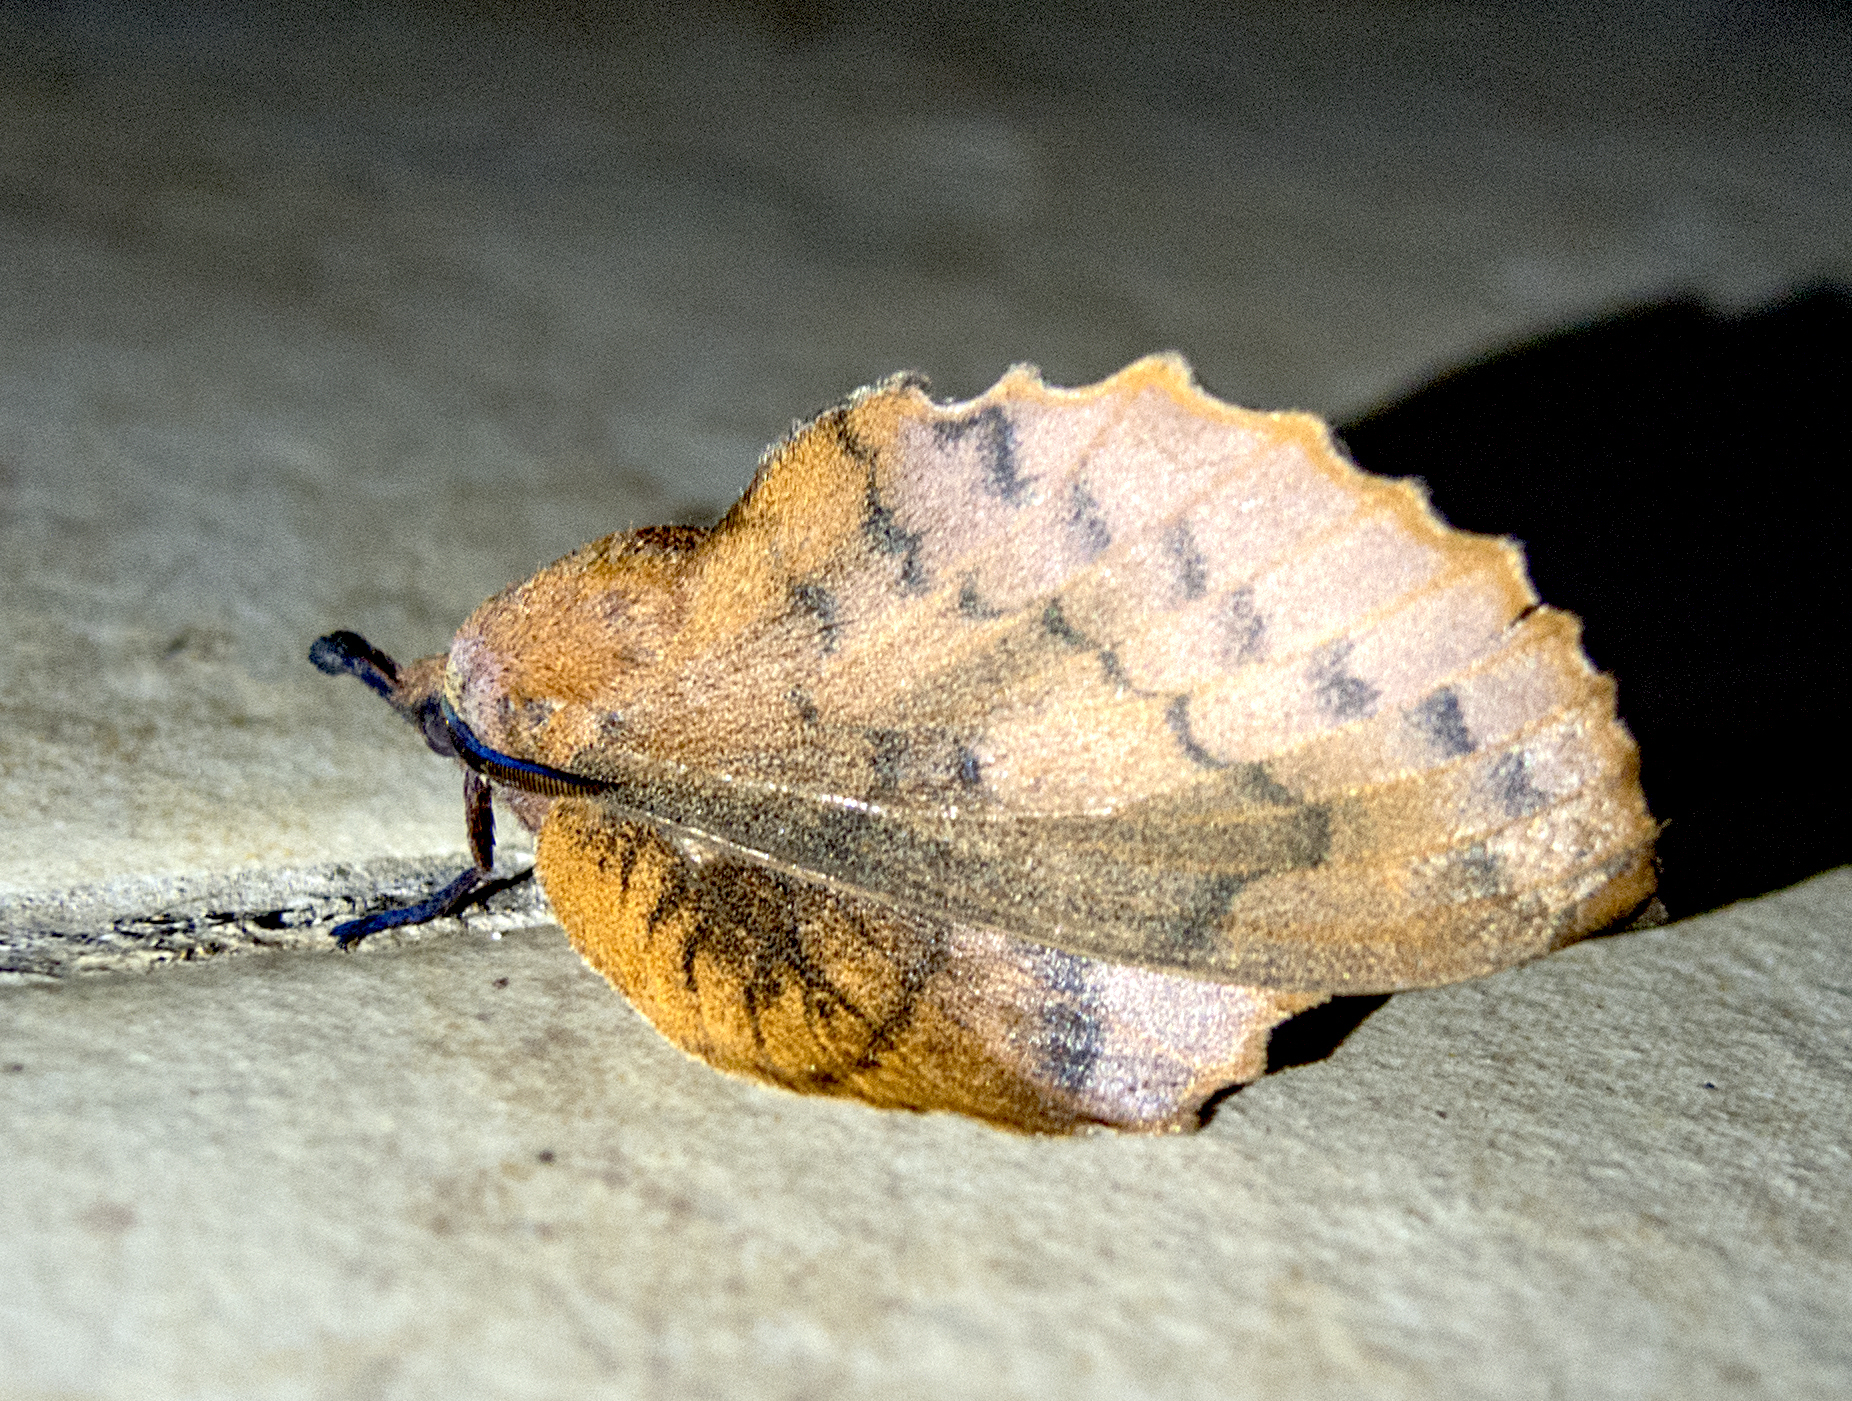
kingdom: Animalia
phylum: Arthropoda
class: Insecta
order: Lepidoptera
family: Lasiocampidae
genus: Gastropacha
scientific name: Gastropacha quercifolia
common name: Lappet
